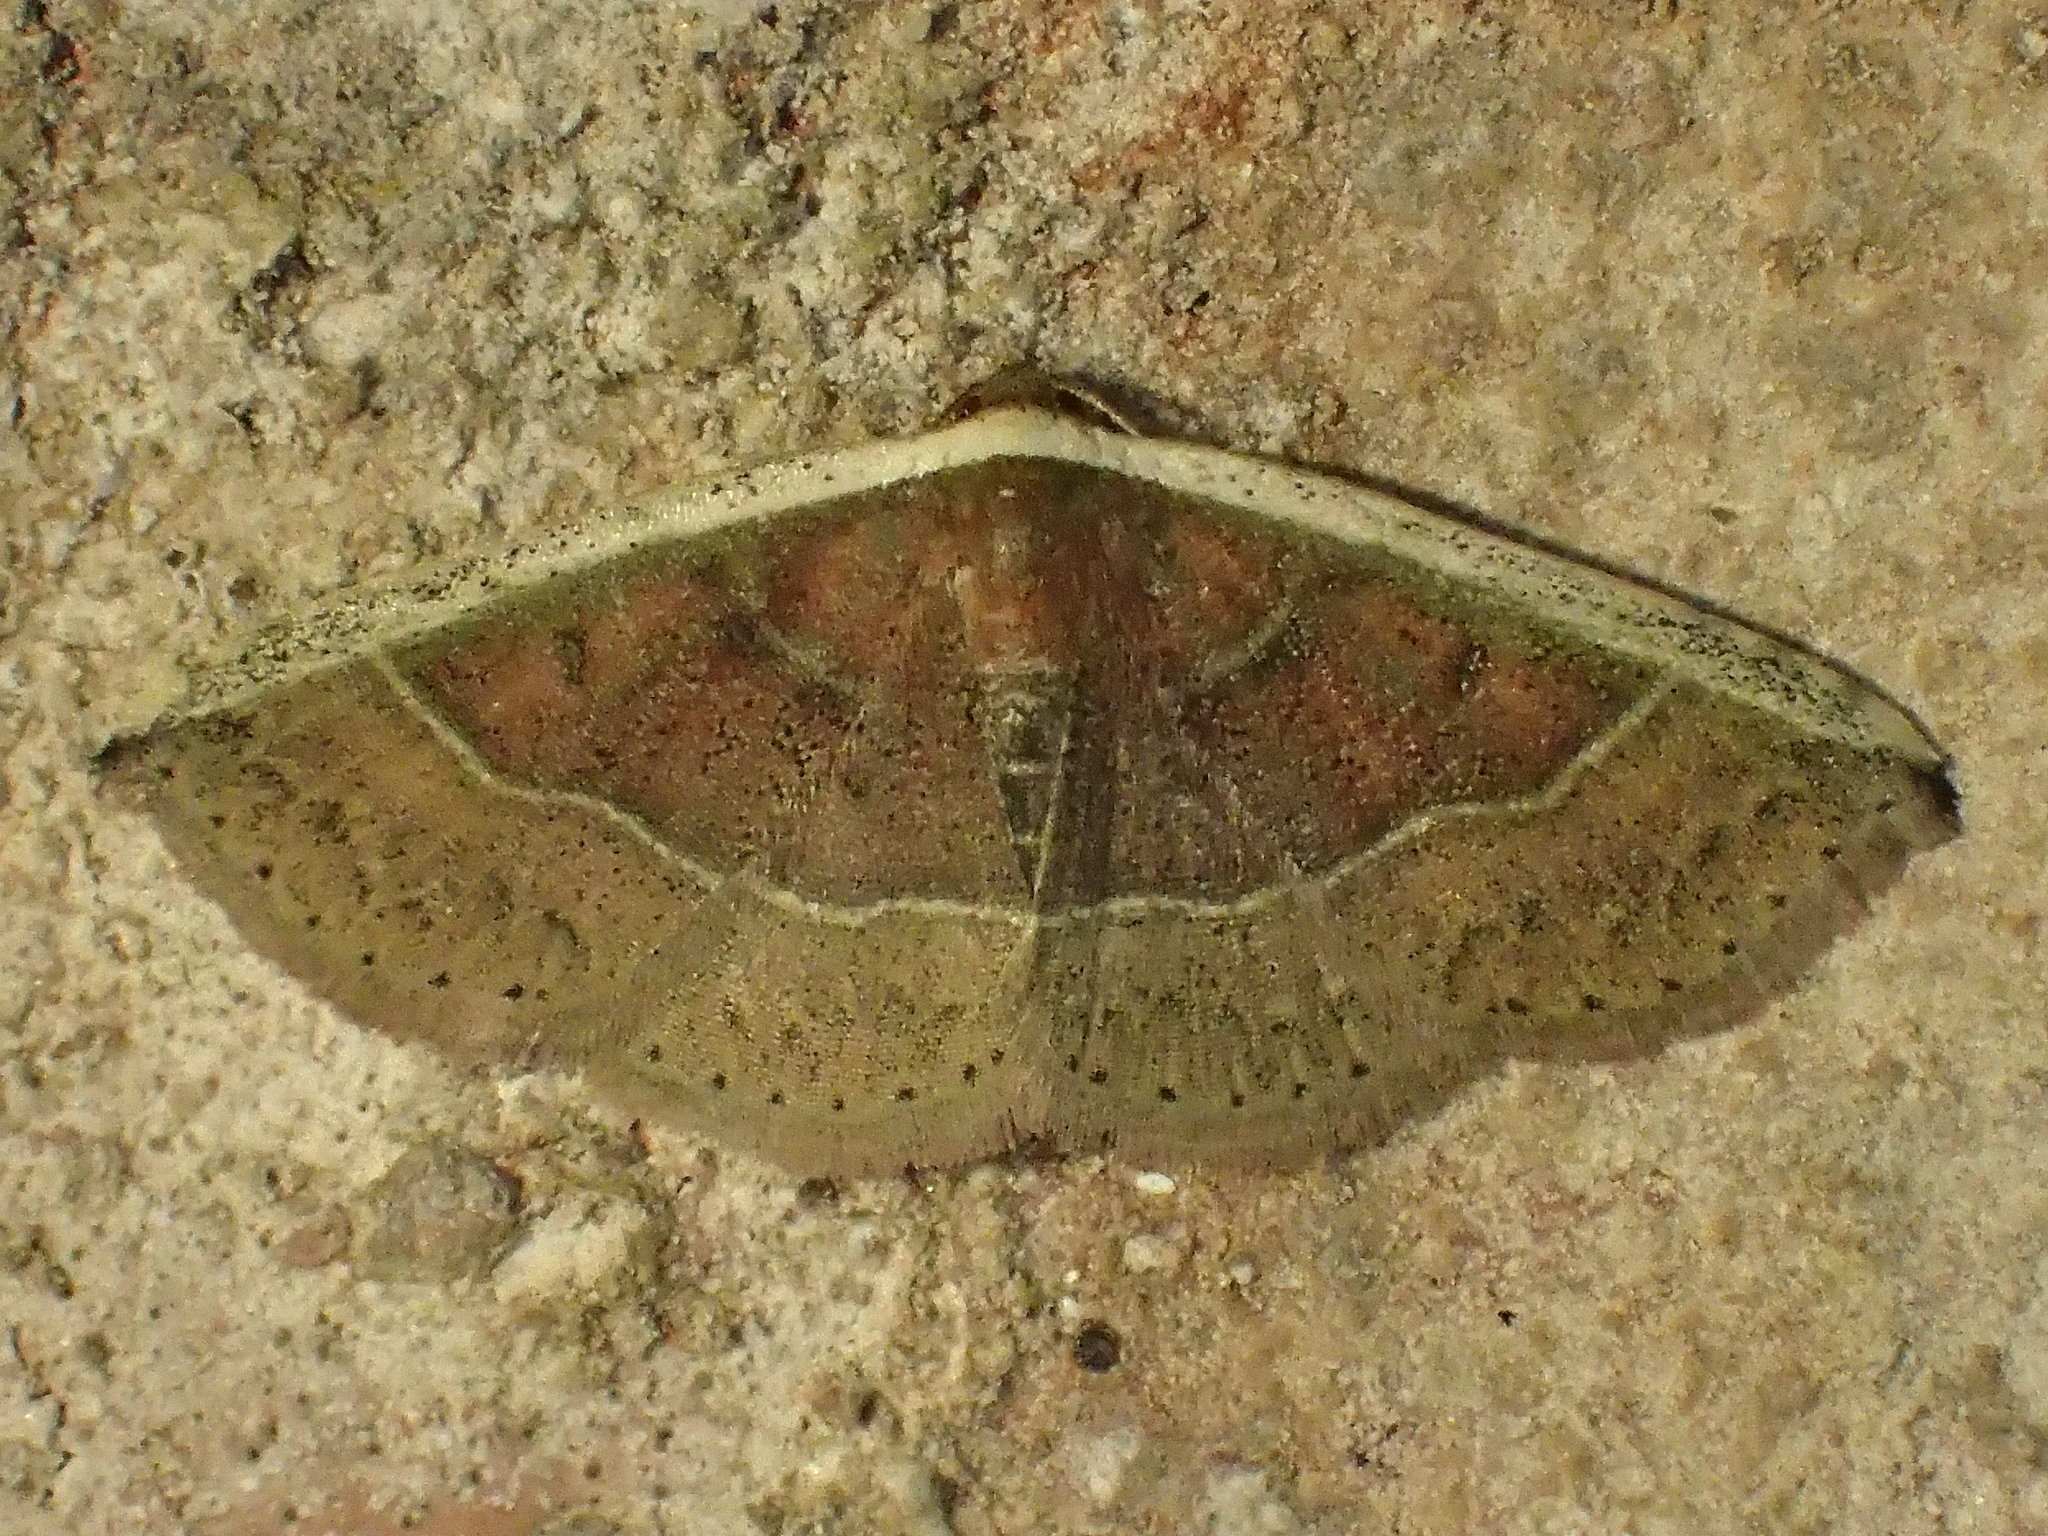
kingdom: Animalia
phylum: Arthropoda
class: Insecta
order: Lepidoptera
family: Noctuidae
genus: Ozarba
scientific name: Ozarba albocostaliata
